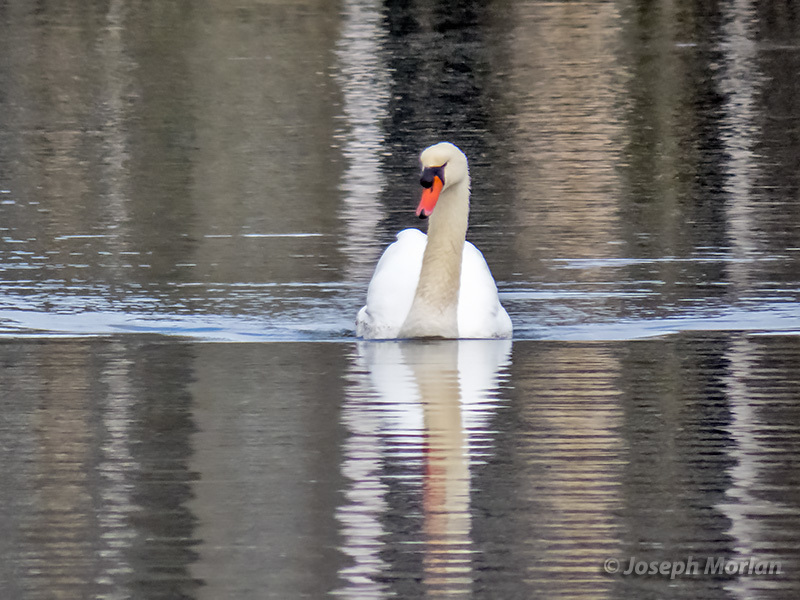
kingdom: Animalia
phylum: Chordata
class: Aves
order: Anseriformes
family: Anatidae
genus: Cygnus
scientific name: Cygnus olor
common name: Mute swan
